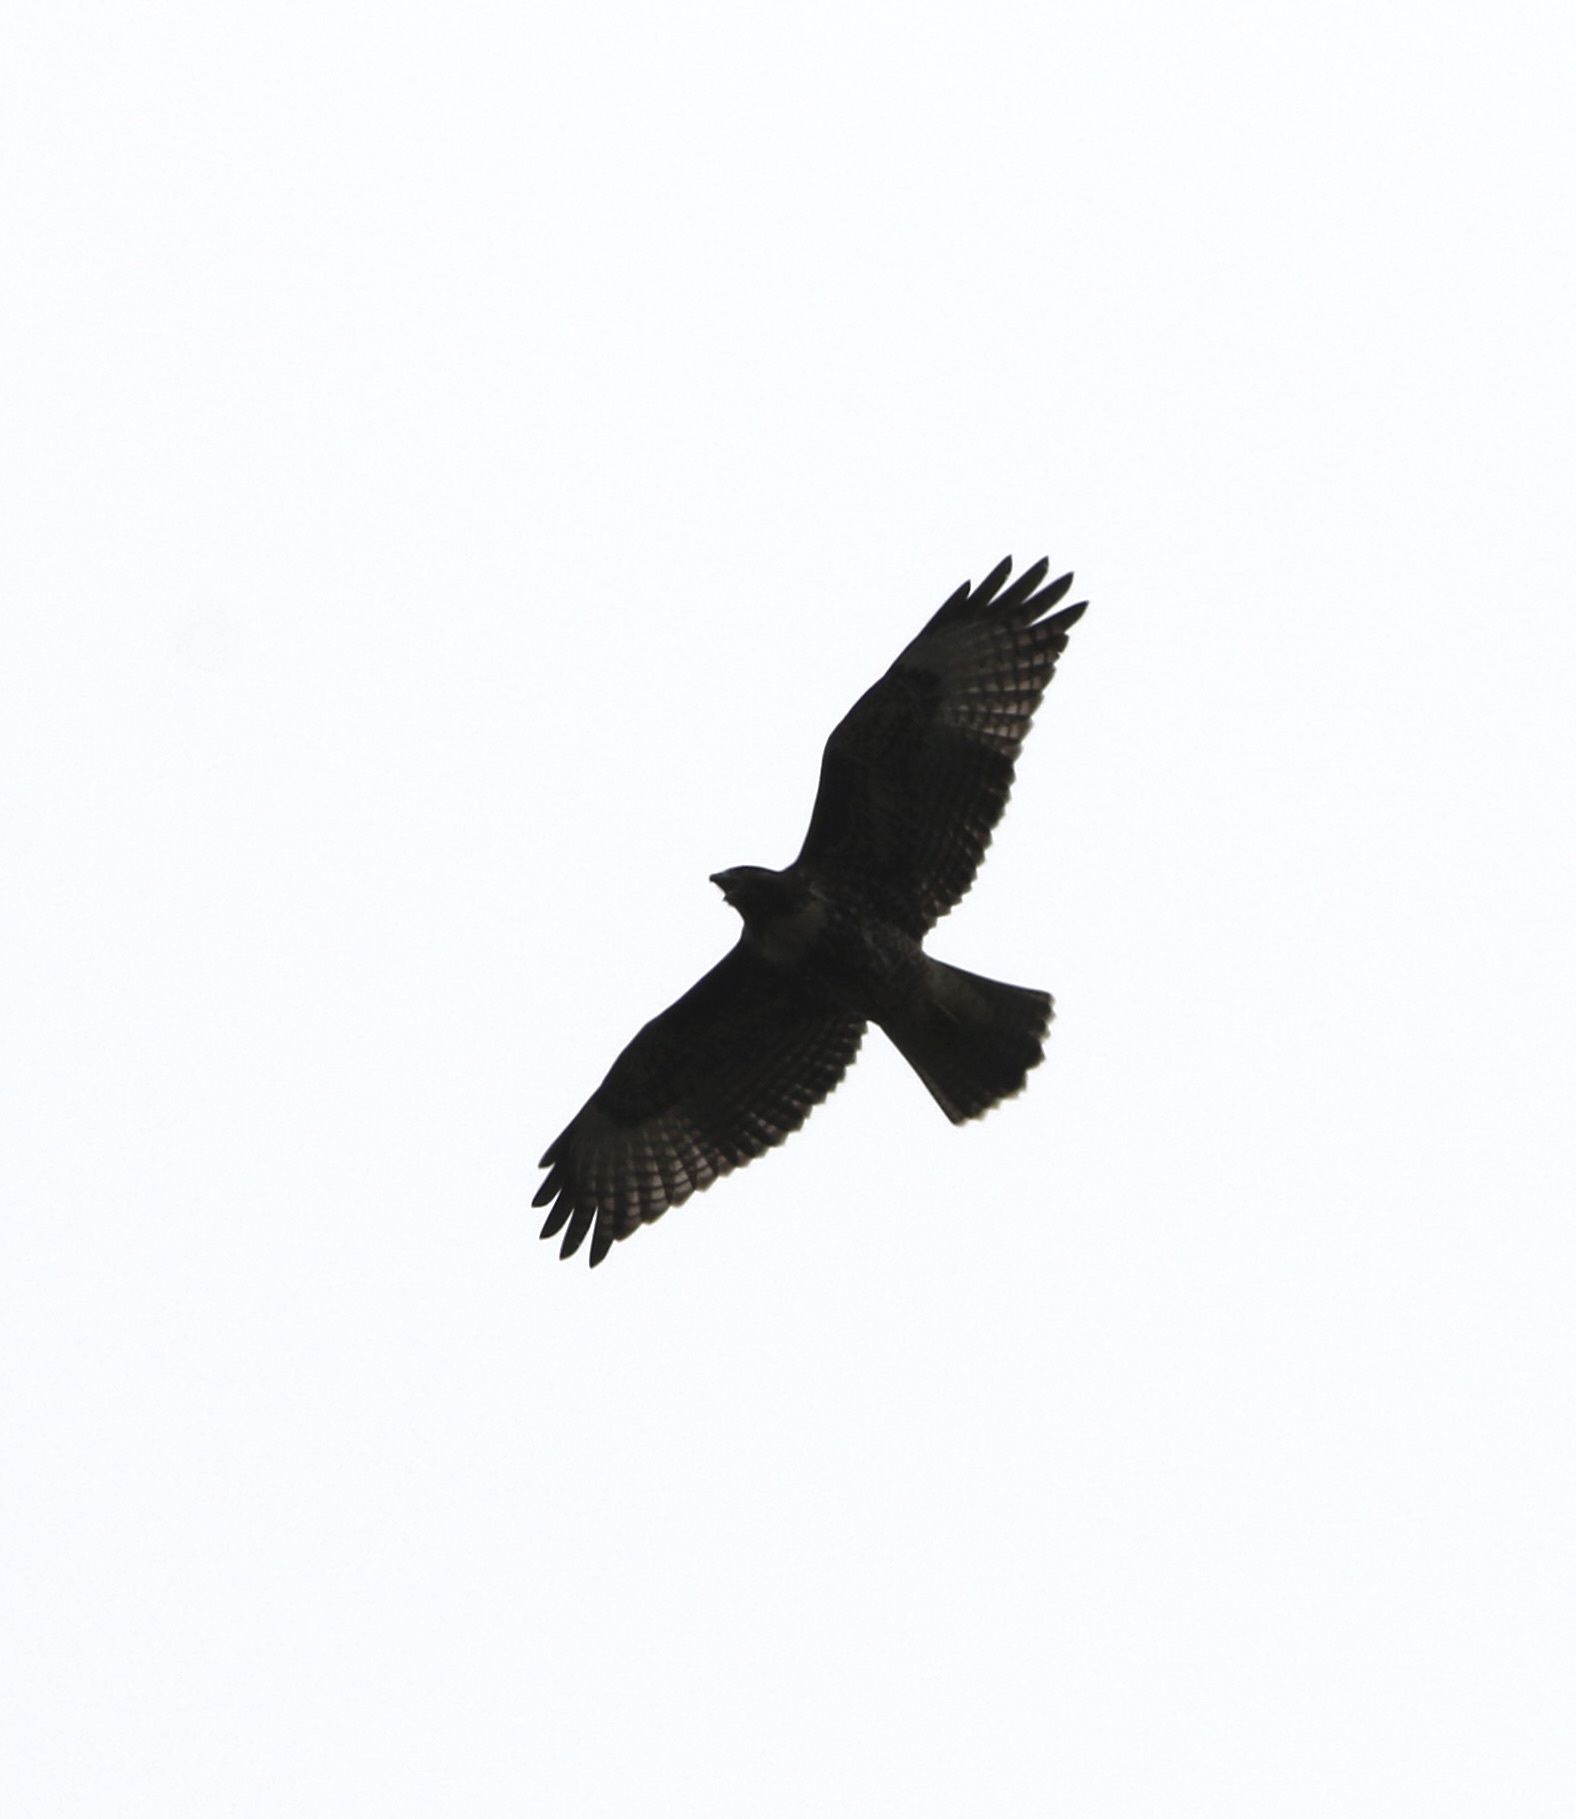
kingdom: Animalia
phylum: Chordata
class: Aves
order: Accipitriformes
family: Accipitridae
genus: Buteo
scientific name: Buteo jamaicensis
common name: Red-tailed hawk
